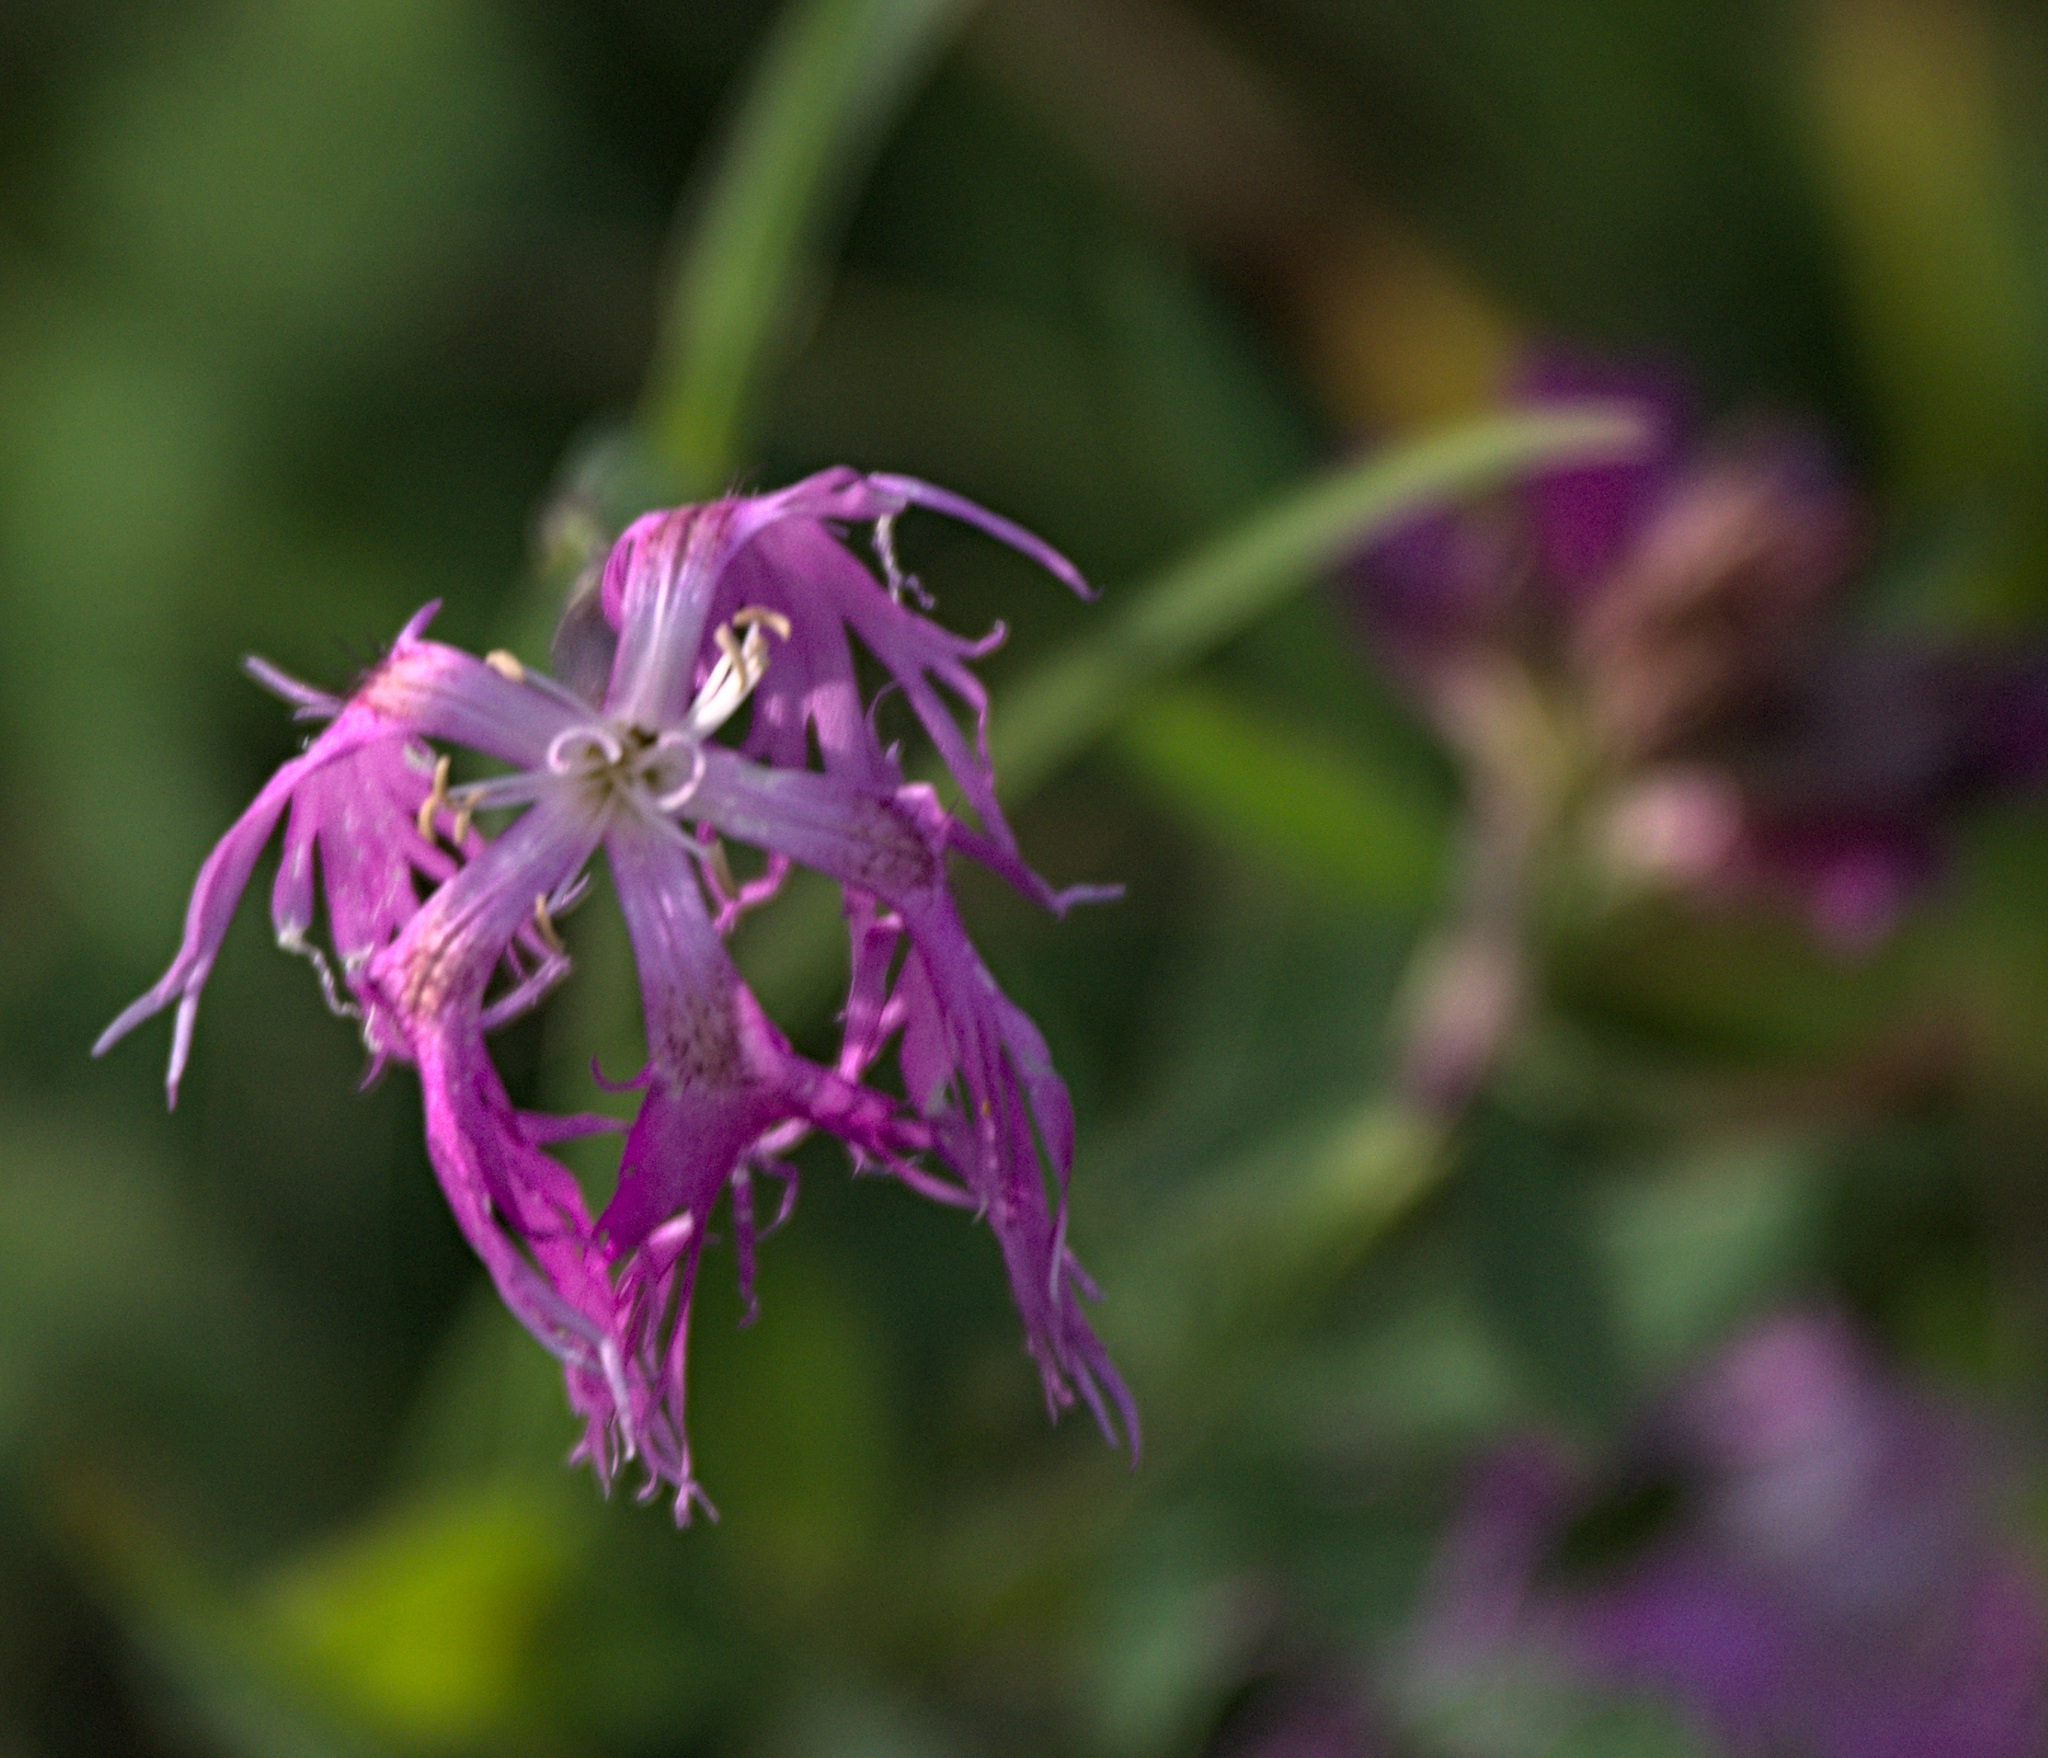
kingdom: Plantae
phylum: Tracheophyta
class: Magnoliopsida
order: Caryophyllales
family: Caryophyllaceae
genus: Dianthus
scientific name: Dianthus superbus
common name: Fringed pink
